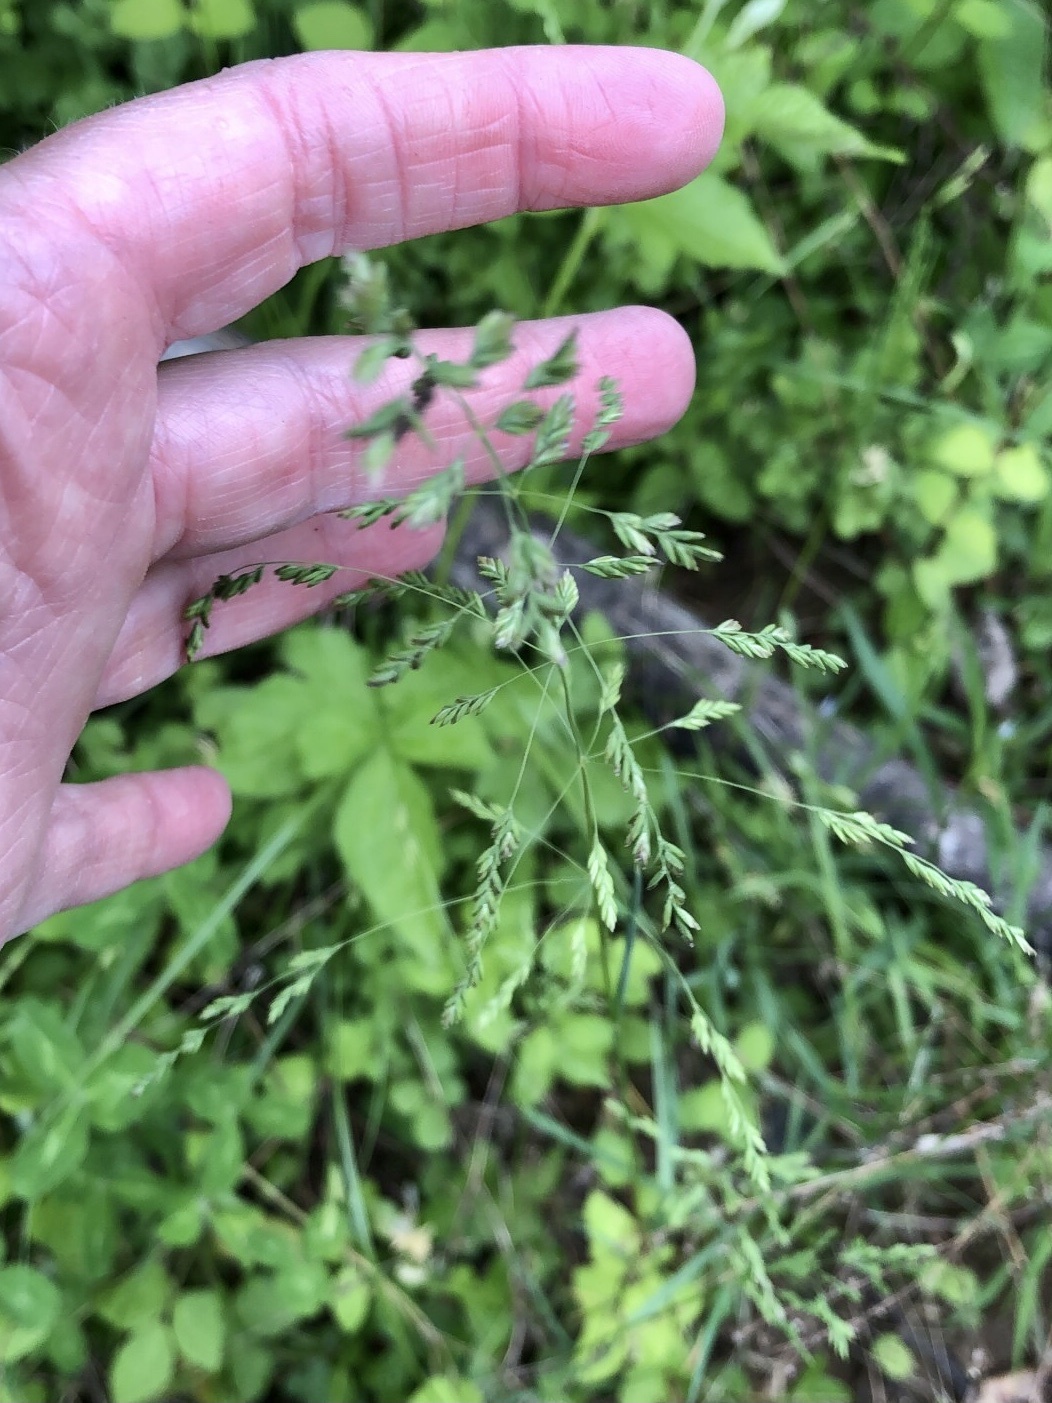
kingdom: Plantae
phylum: Tracheophyta
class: Liliopsida
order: Poales
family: Poaceae
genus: Poa
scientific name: Poa pratensis
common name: Kentucky bluegrass
